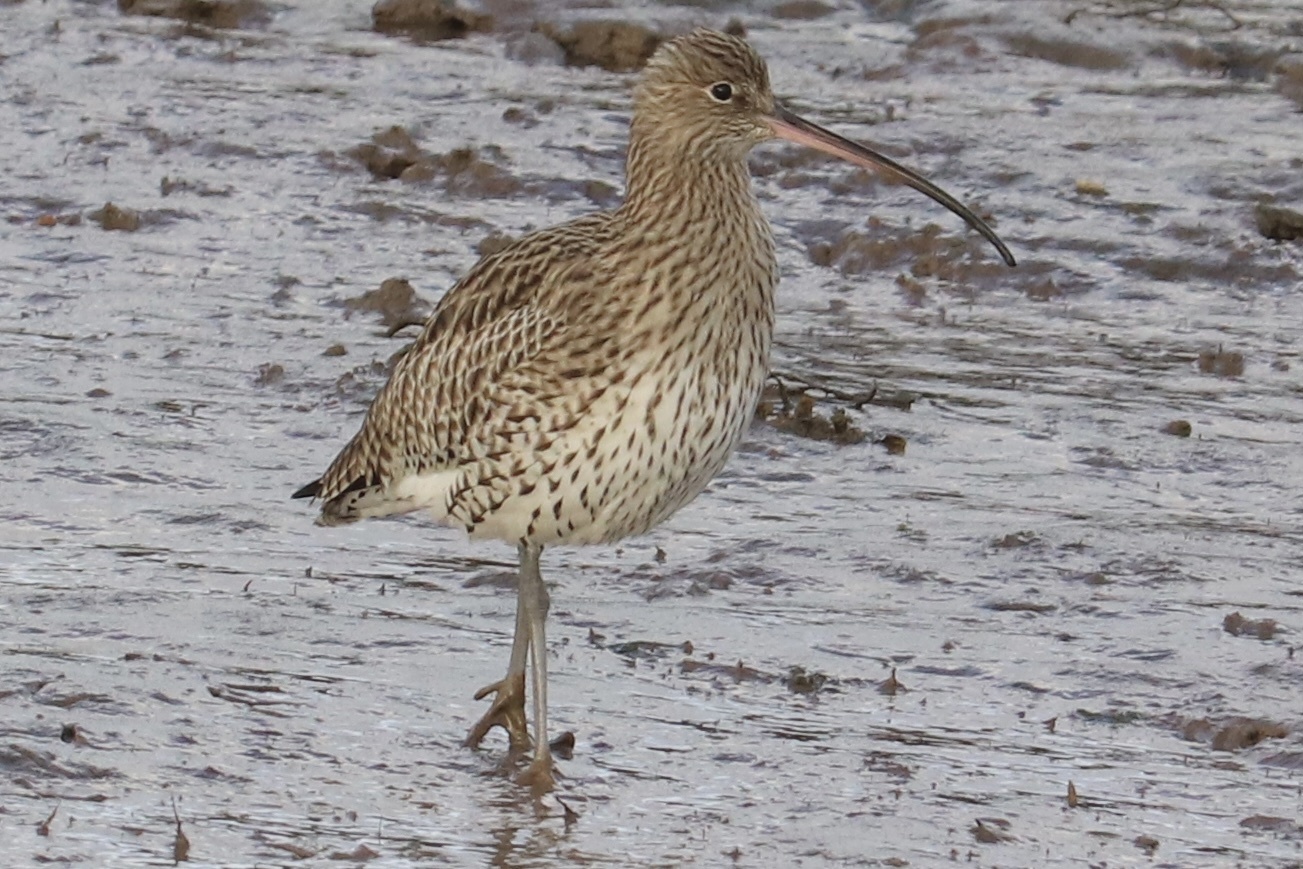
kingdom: Animalia
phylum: Chordata
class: Aves
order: Charadriiformes
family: Scolopacidae
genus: Numenius
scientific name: Numenius arquata
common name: Eurasian curlew
